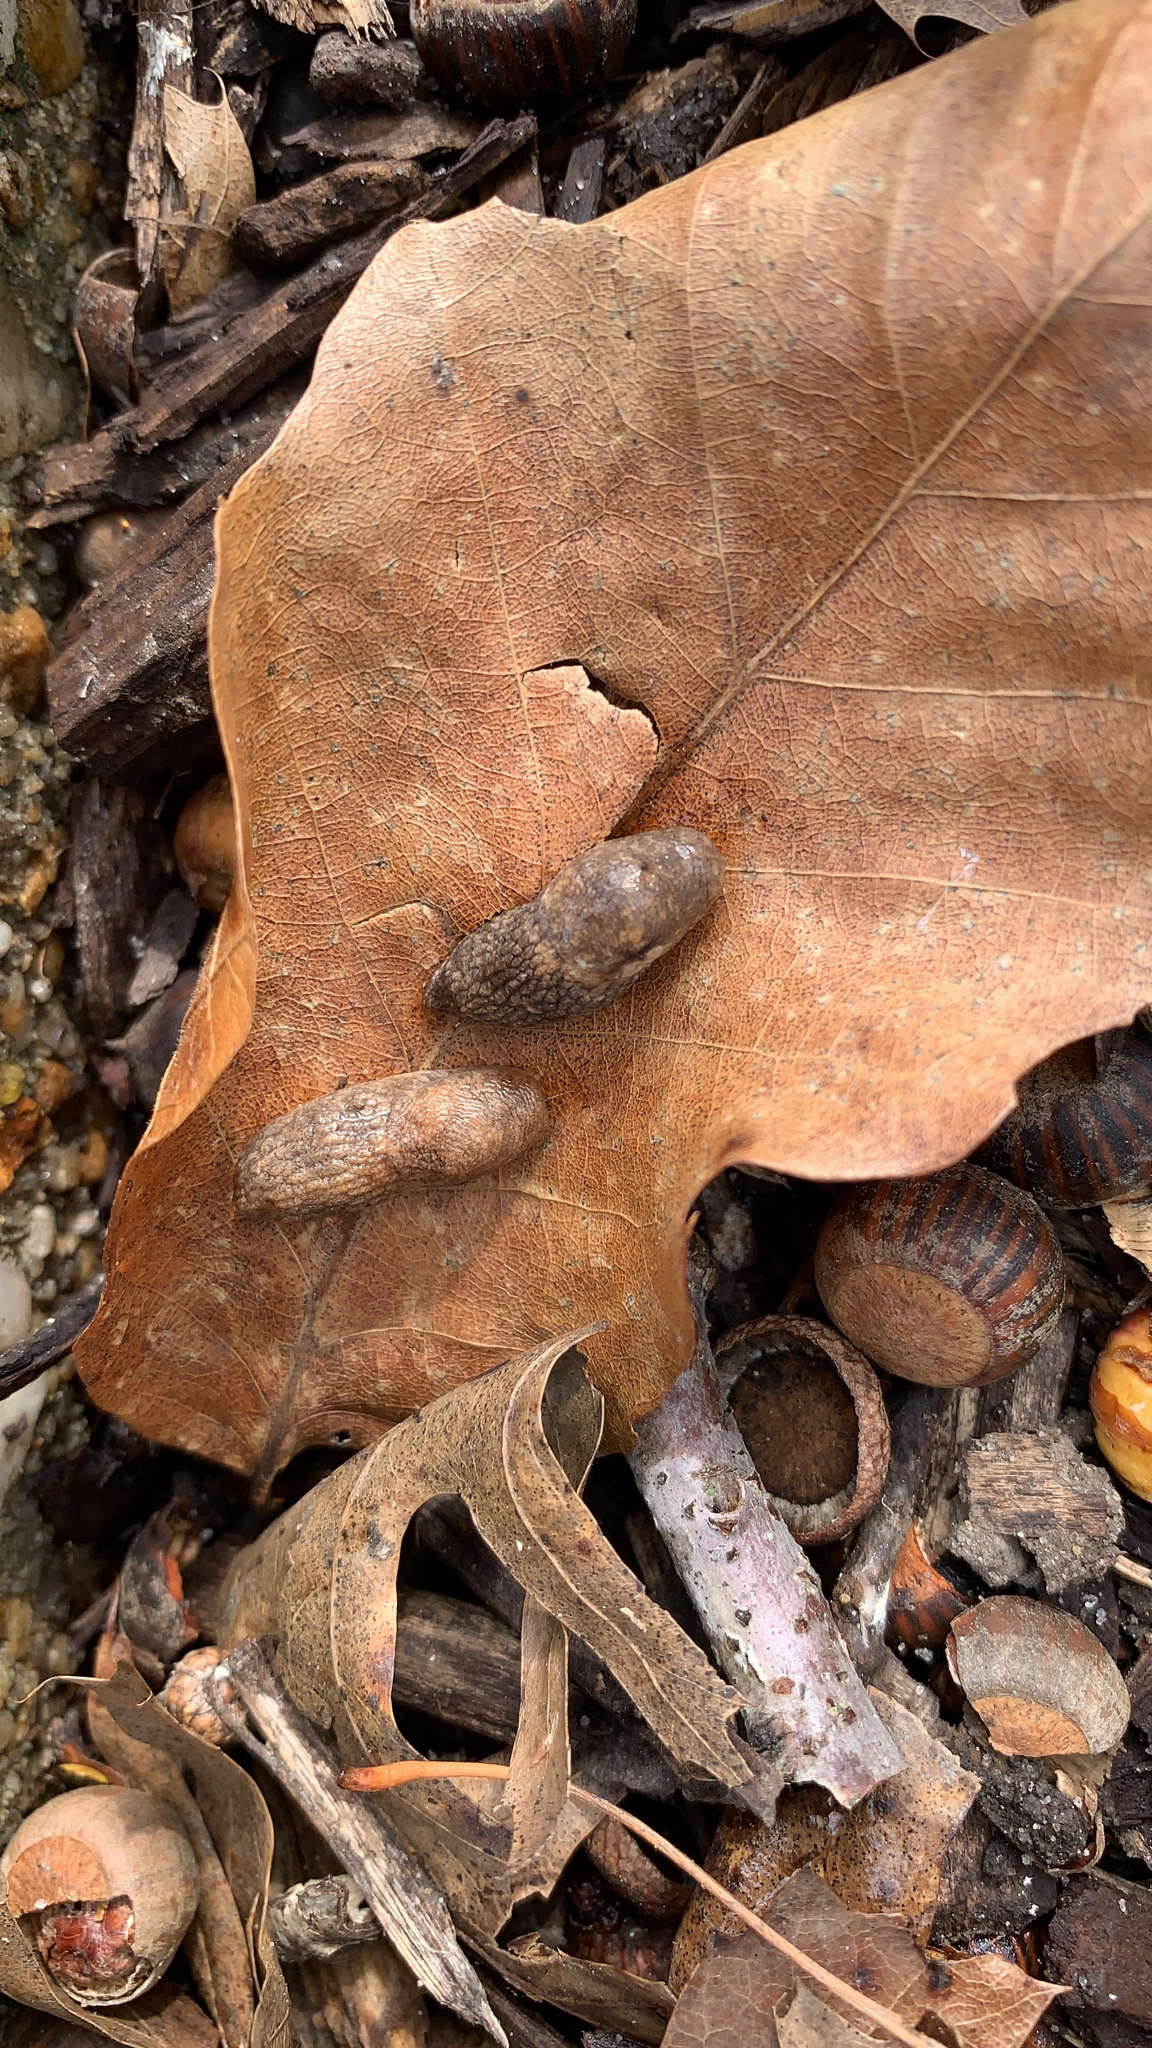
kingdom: Animalia
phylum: Mollusca
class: Gastropoda
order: Stylommatophora
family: Agriolimacidae
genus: Deroceras
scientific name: Deroceras reticulatum
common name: Gray field slug
